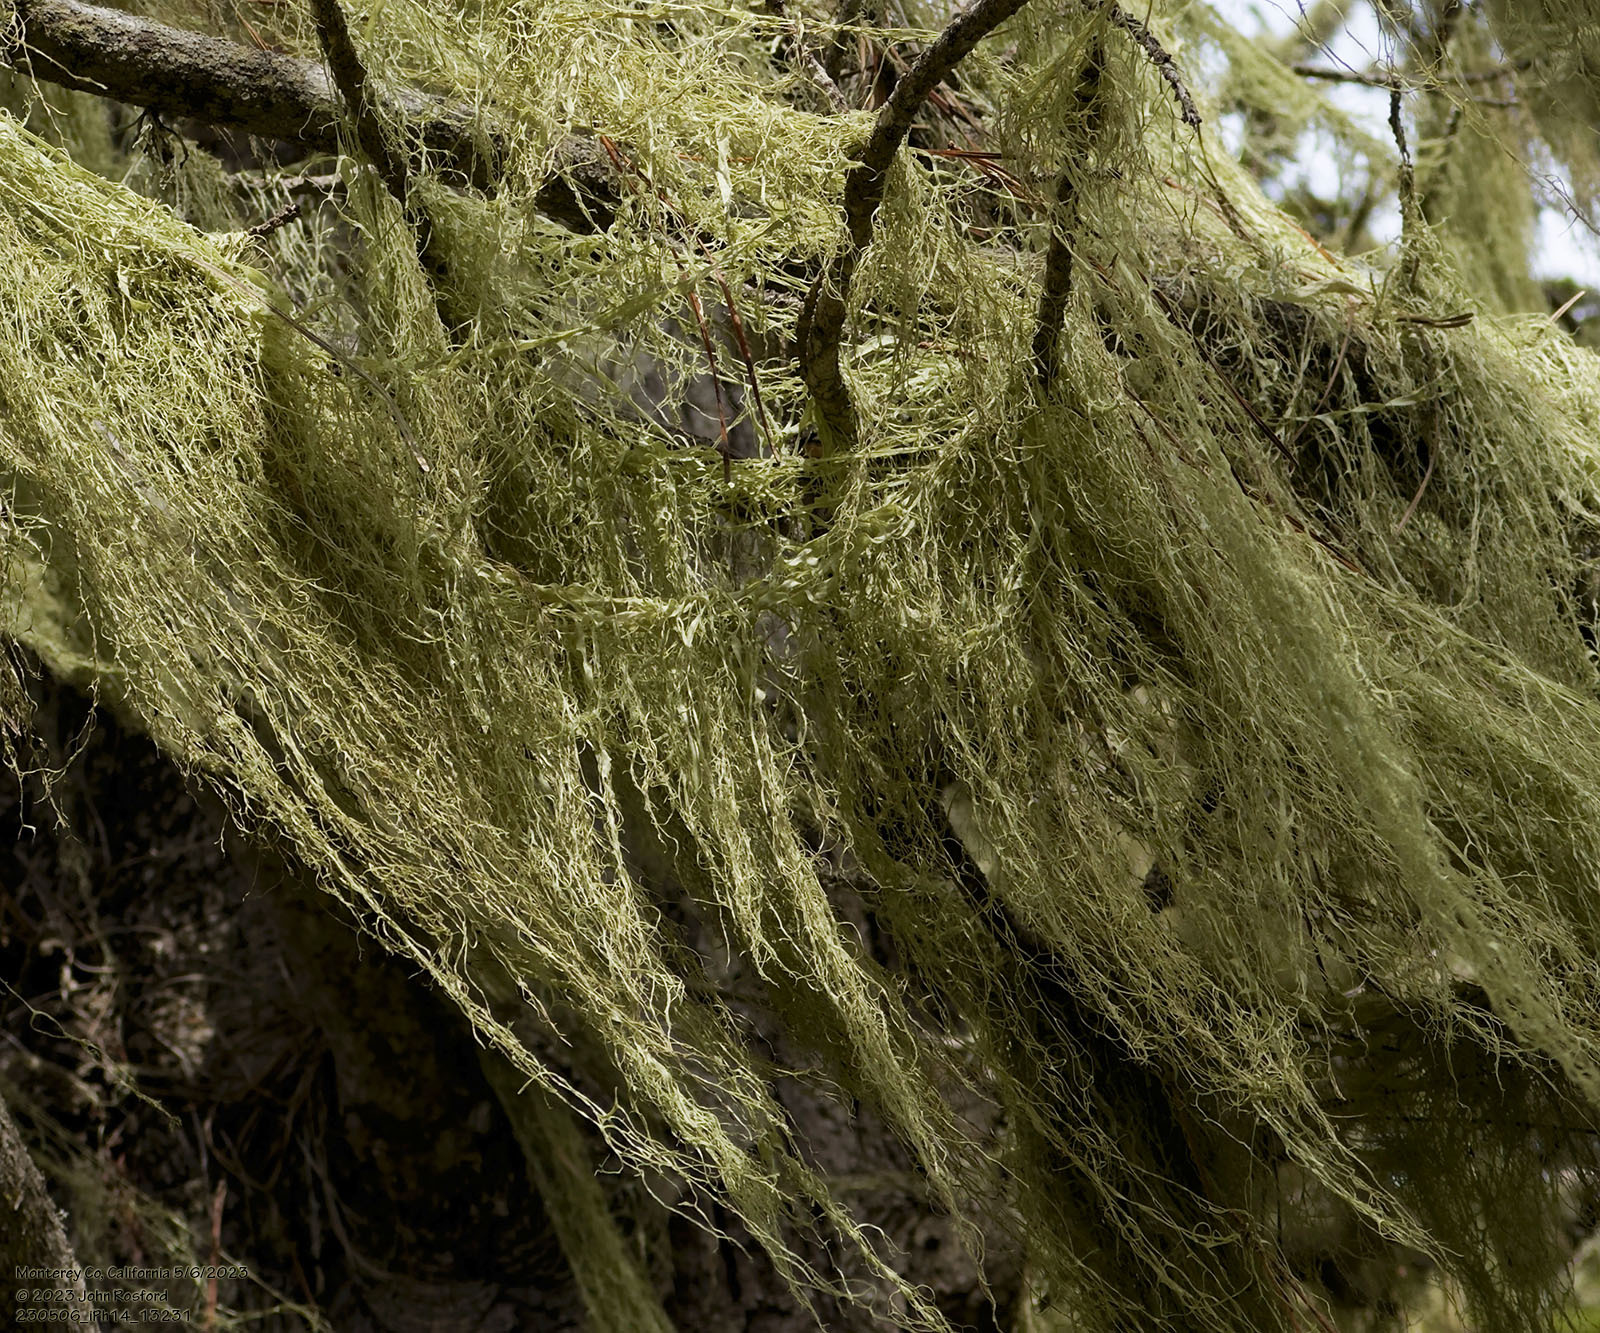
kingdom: Fungi
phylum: Ascomycota
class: Lecanoromycetes
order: Lecanorales
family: Ramalinaceae
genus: Ramalina
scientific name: Ramalina menziesii
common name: Lace lichen
